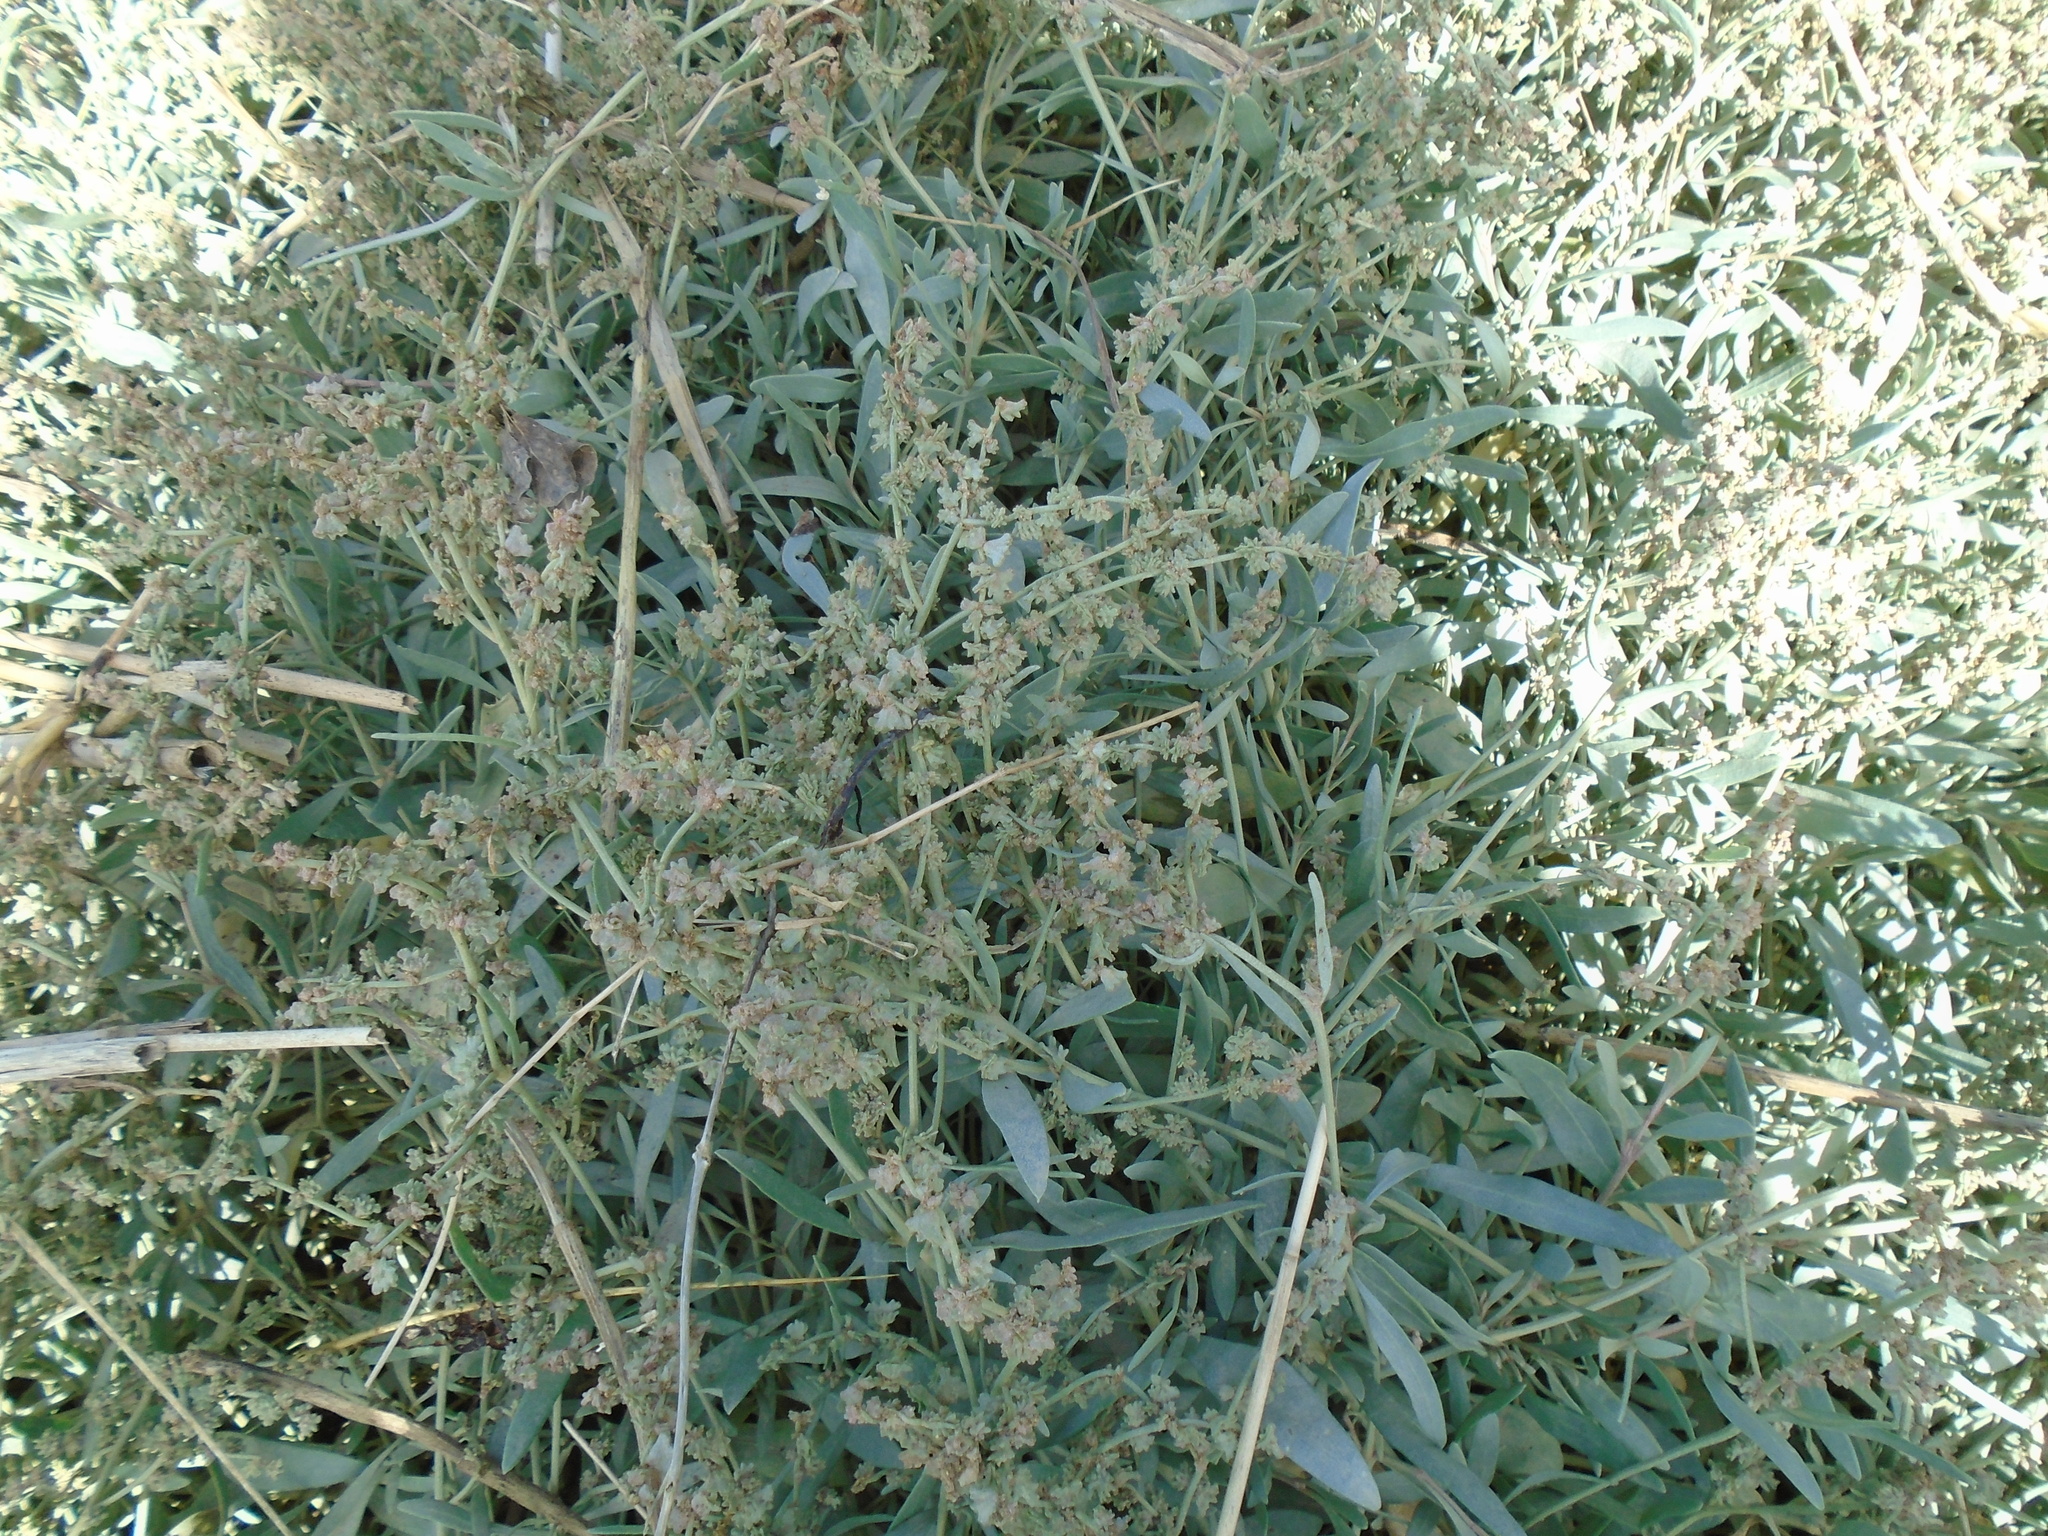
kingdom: Plantae
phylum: Tracheophyta
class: Magnoliopsida
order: Caryophyllales
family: Amaranthaceae
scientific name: Amaranthaceae
